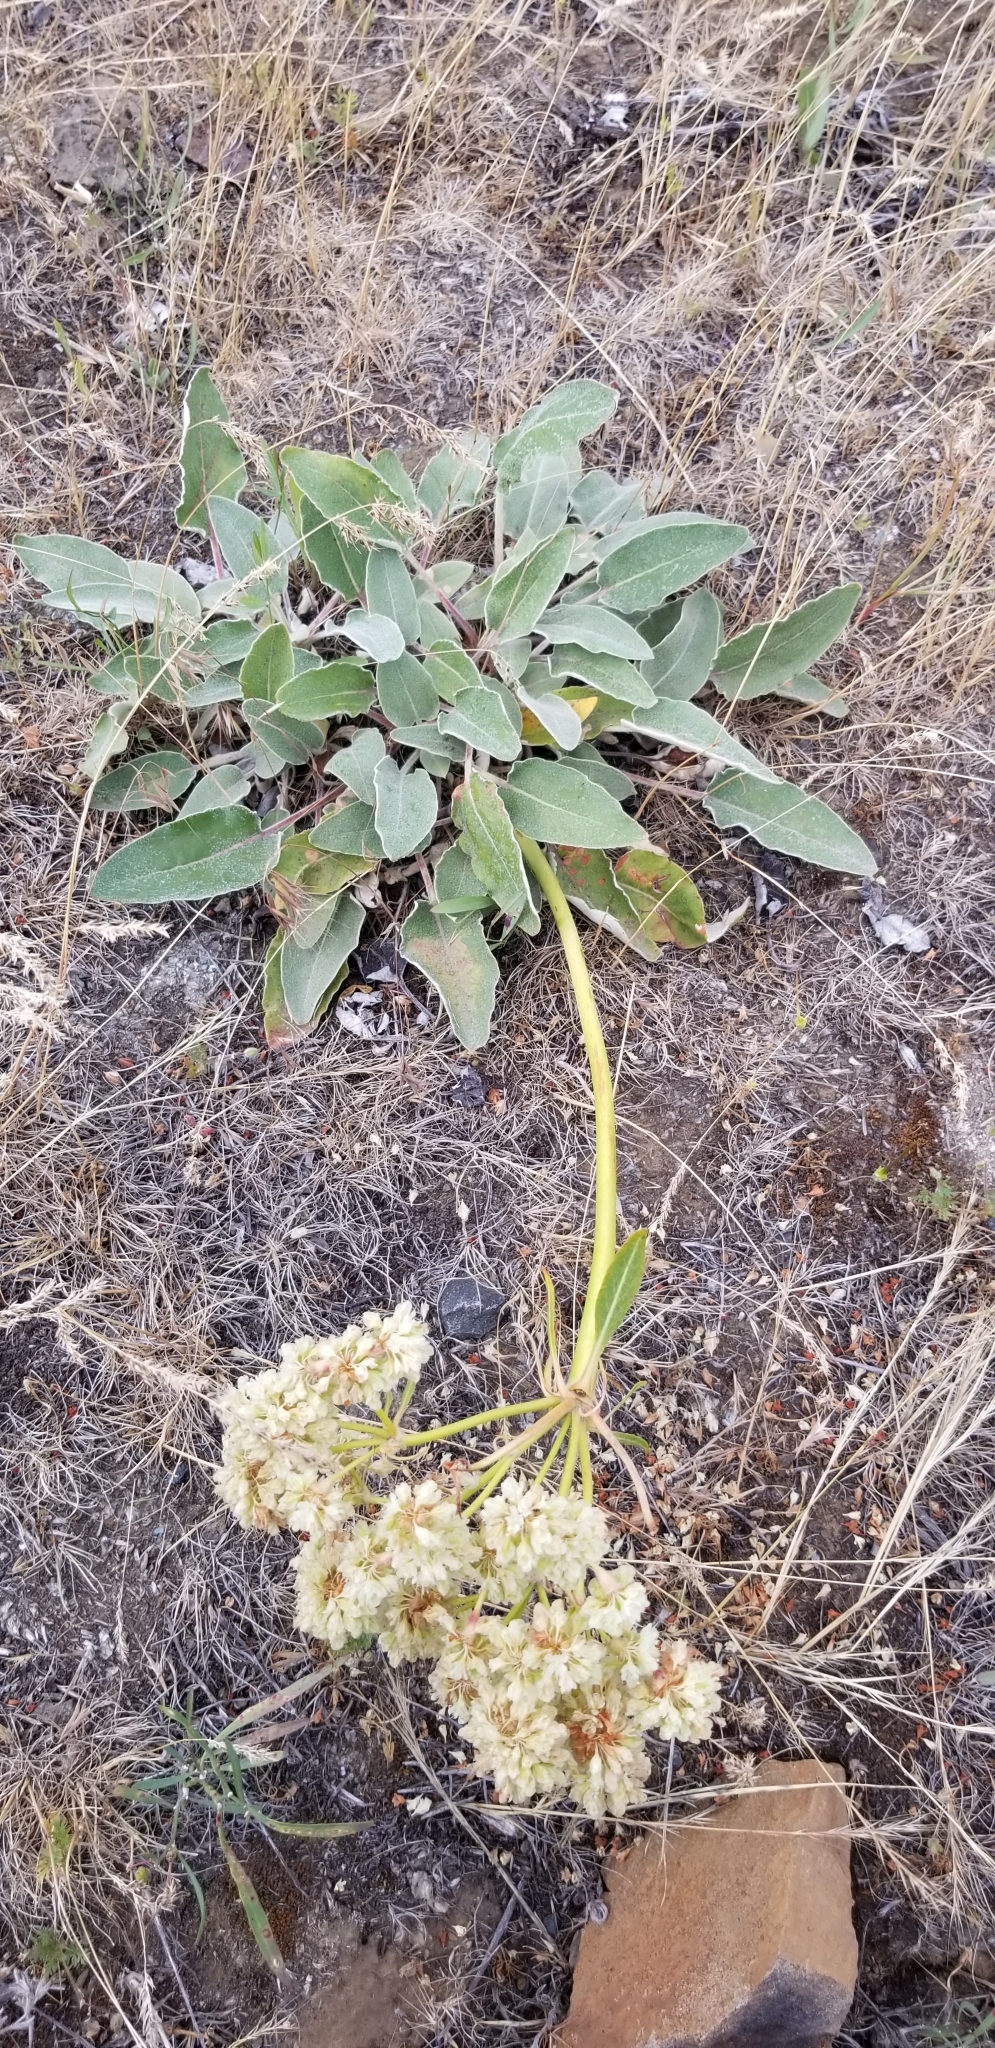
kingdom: Plantae
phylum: Tracheophyta
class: Magnoliopsida
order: Caryophyllales
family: Polygonaceae
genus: Eriogonum
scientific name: Eriogonum compositum
